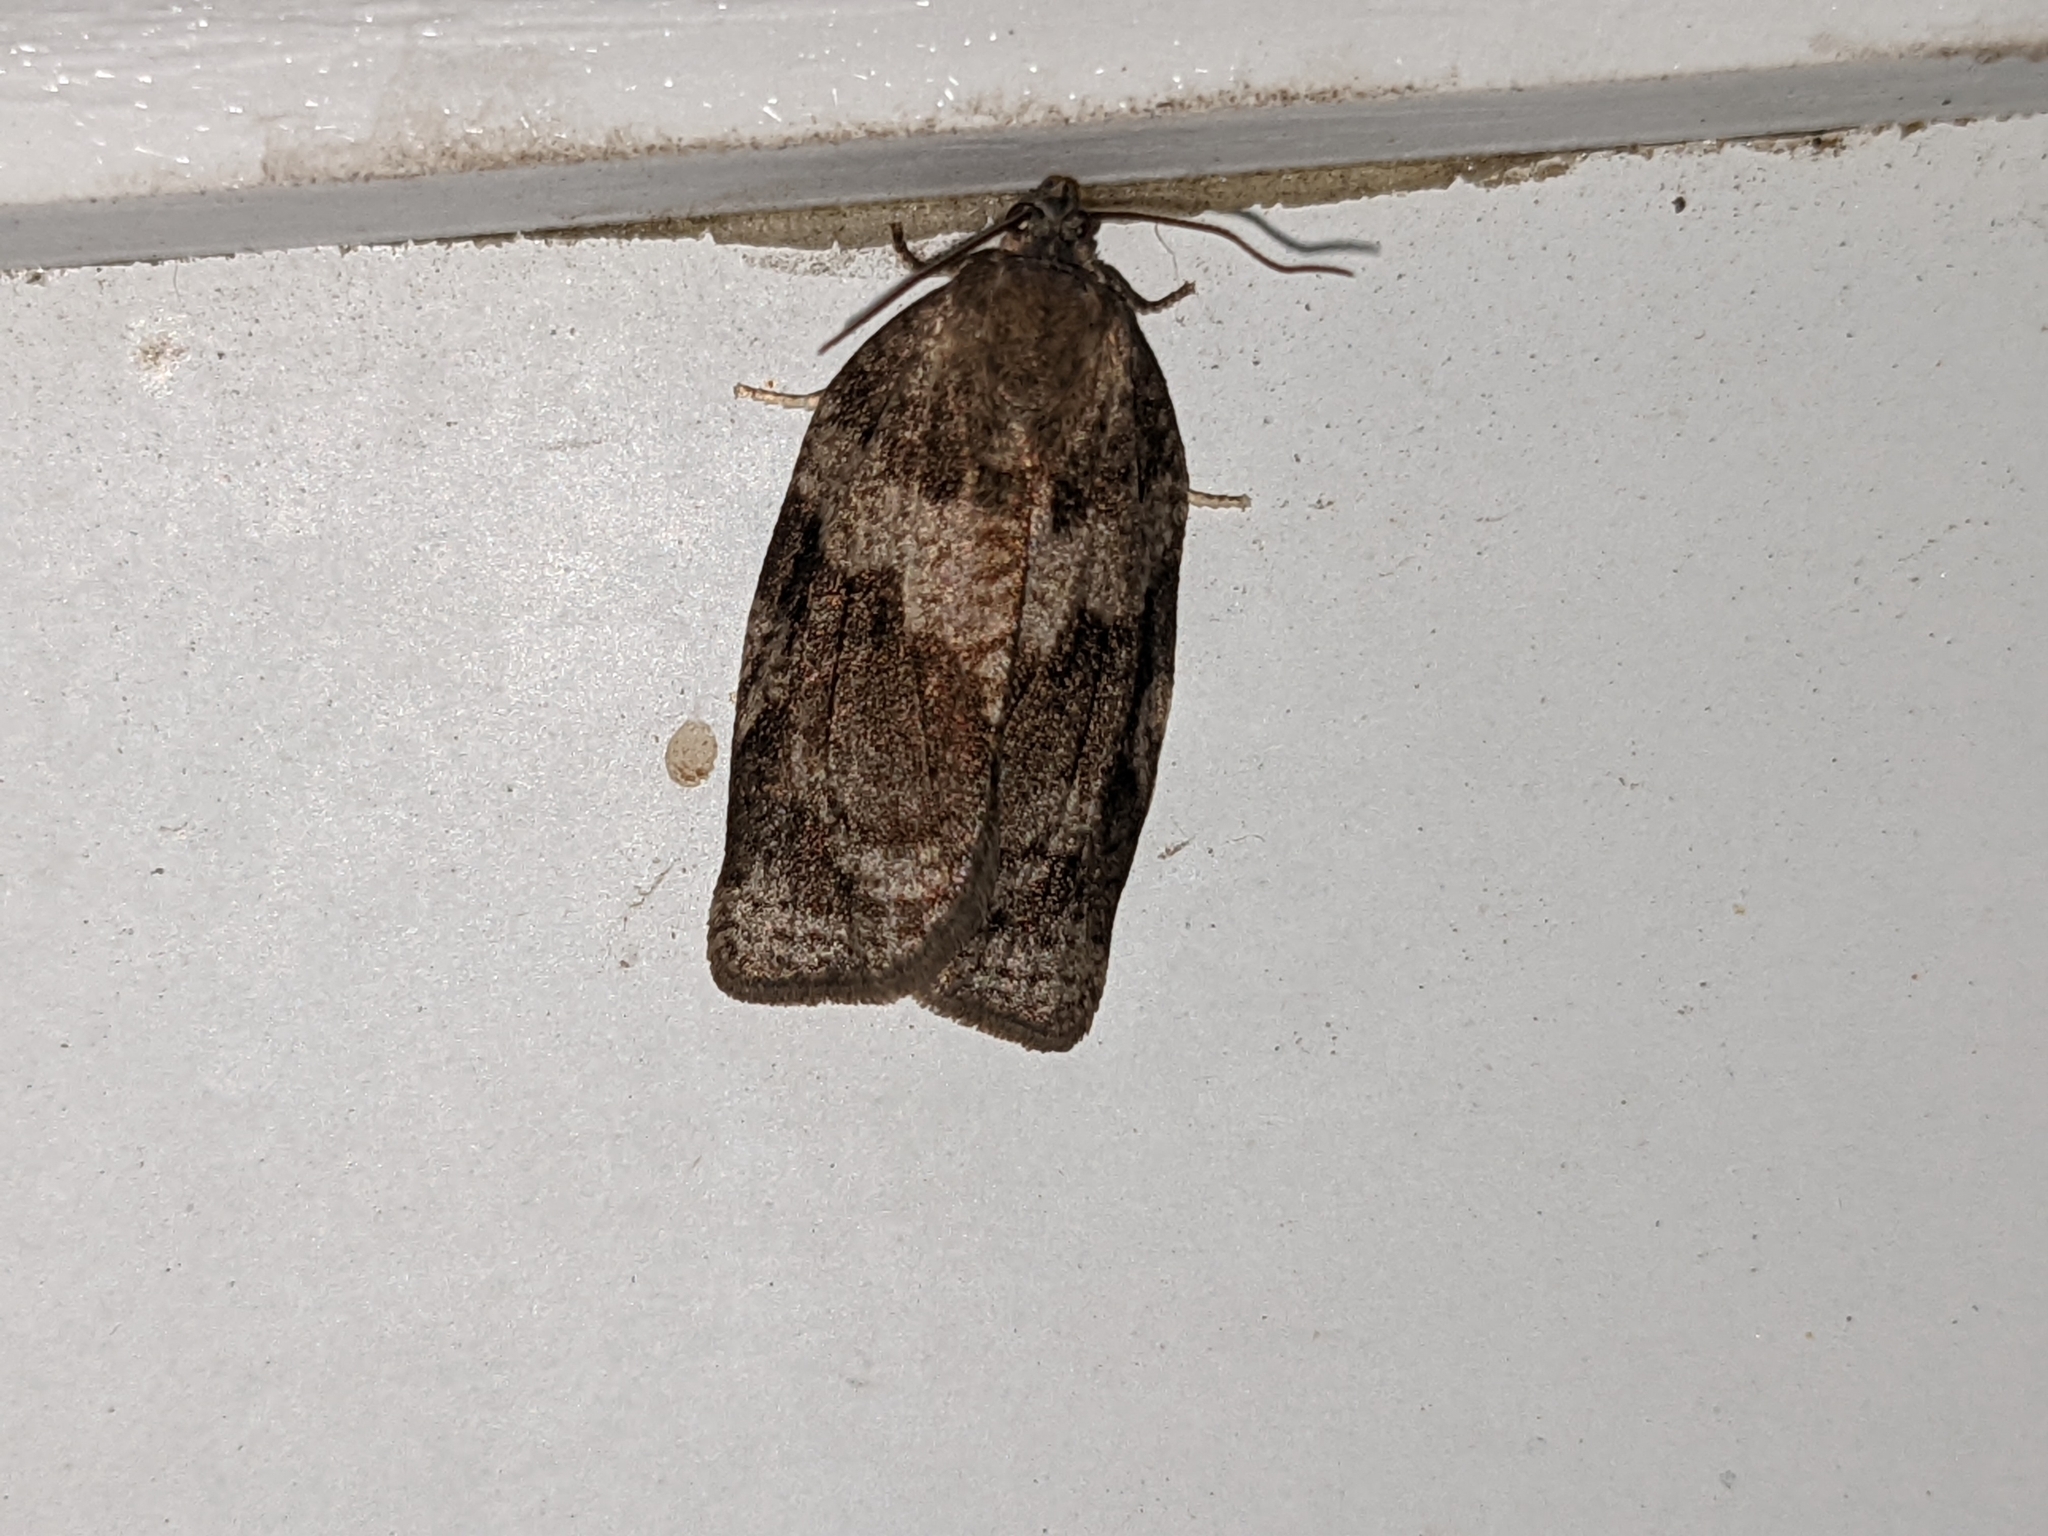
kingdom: Animalia
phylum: Arthropoda
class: Insecta
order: Lepidoptera
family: Tortricidae
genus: Choristoneura
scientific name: Choristoneura conflictana
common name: Large aspen tortrix
